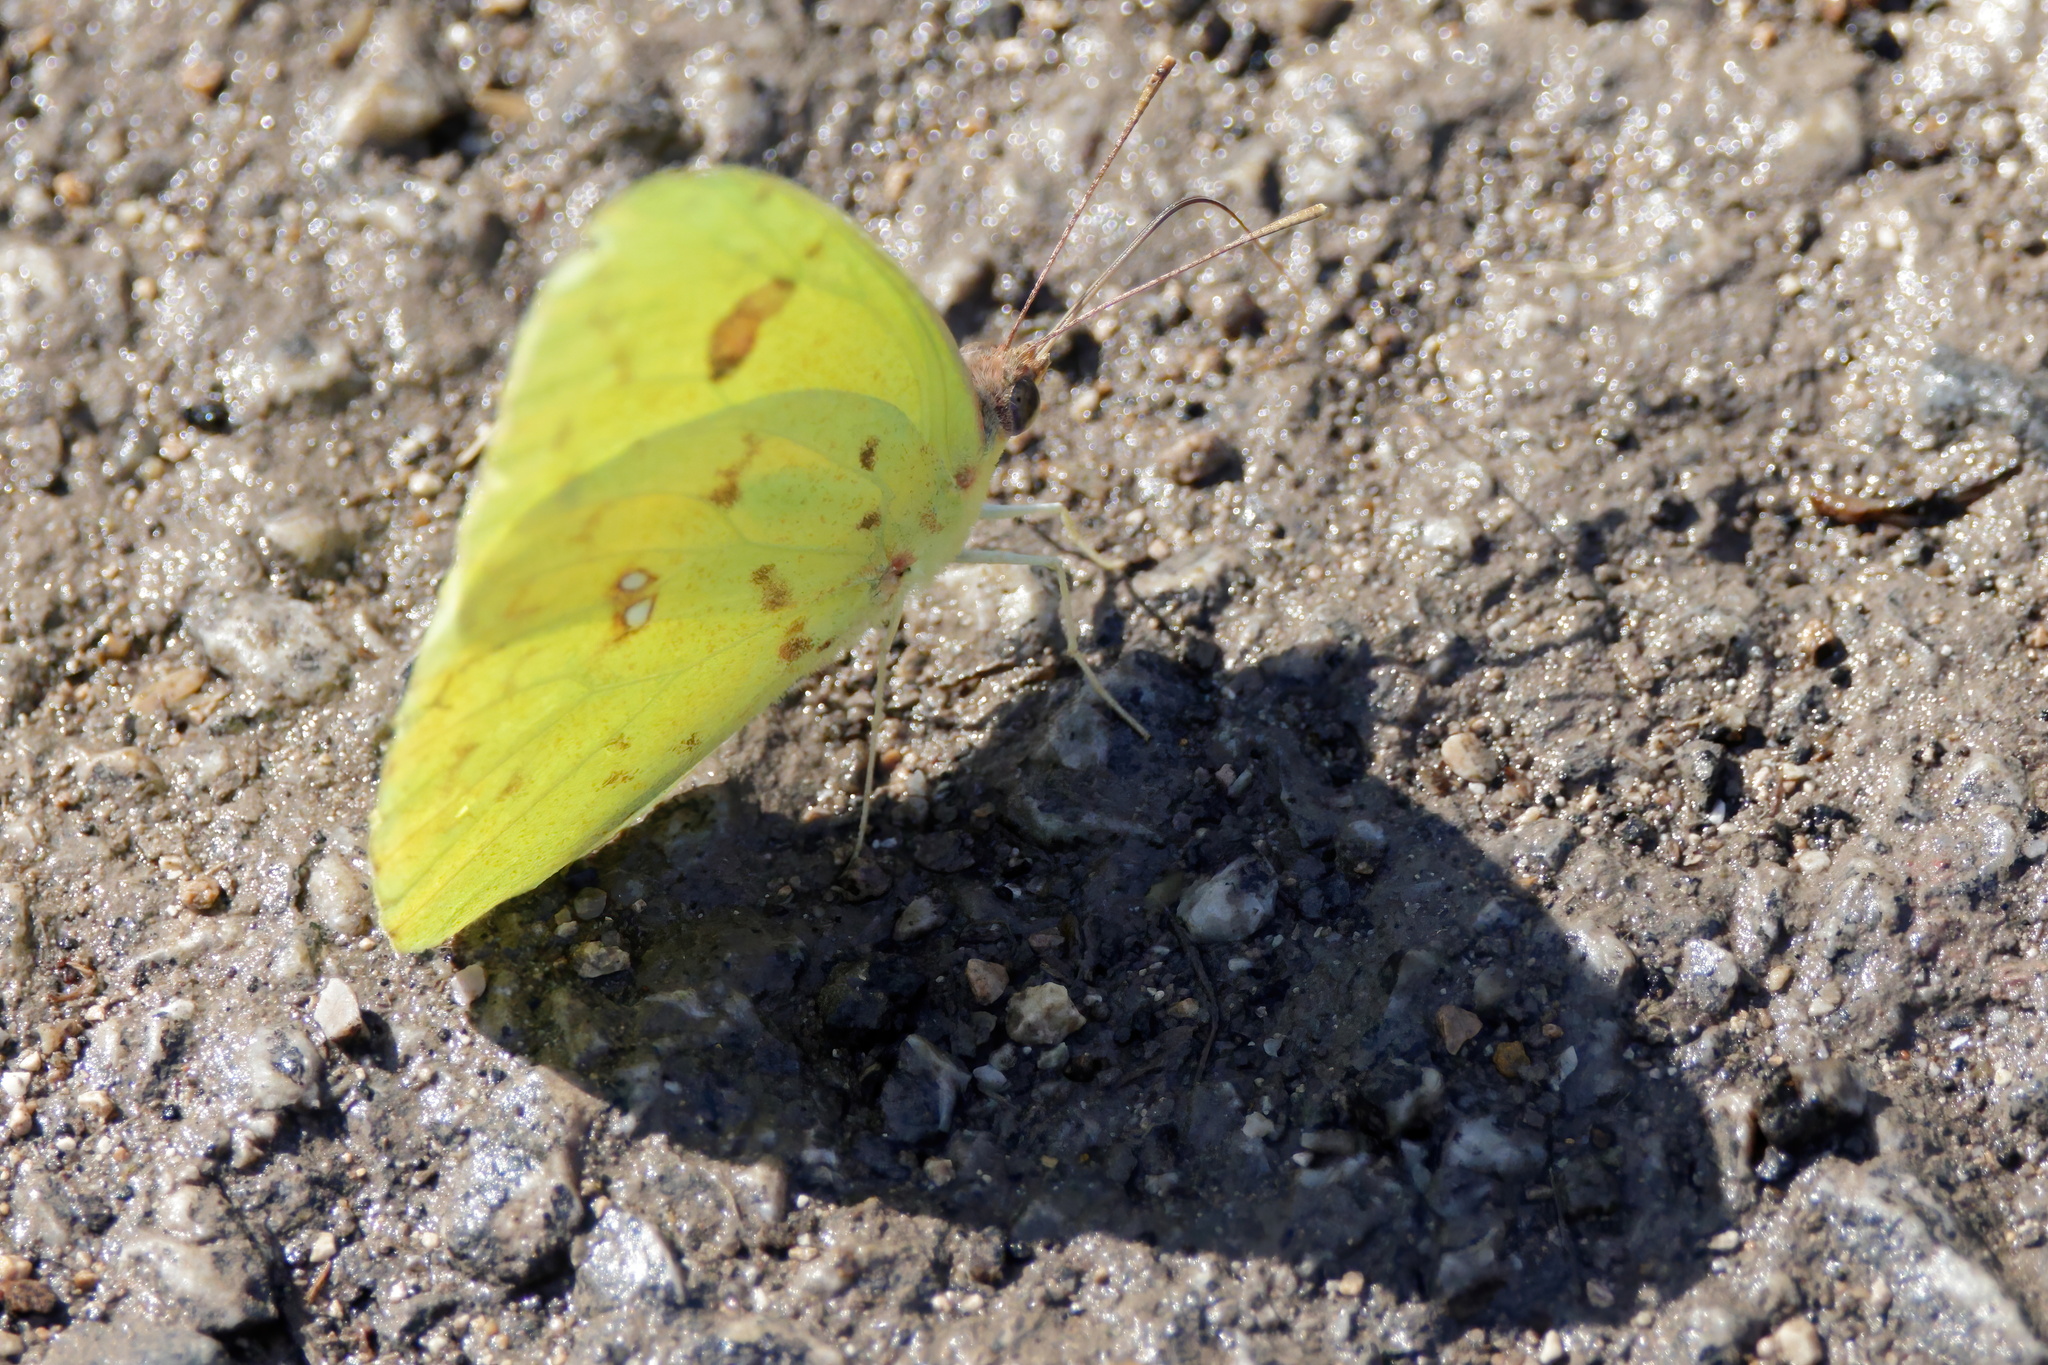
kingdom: Animalia
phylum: Arthropoda
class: Insecta
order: Lepidoptera
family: Pieridae
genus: Phoebis
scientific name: Phoebis marcellina
